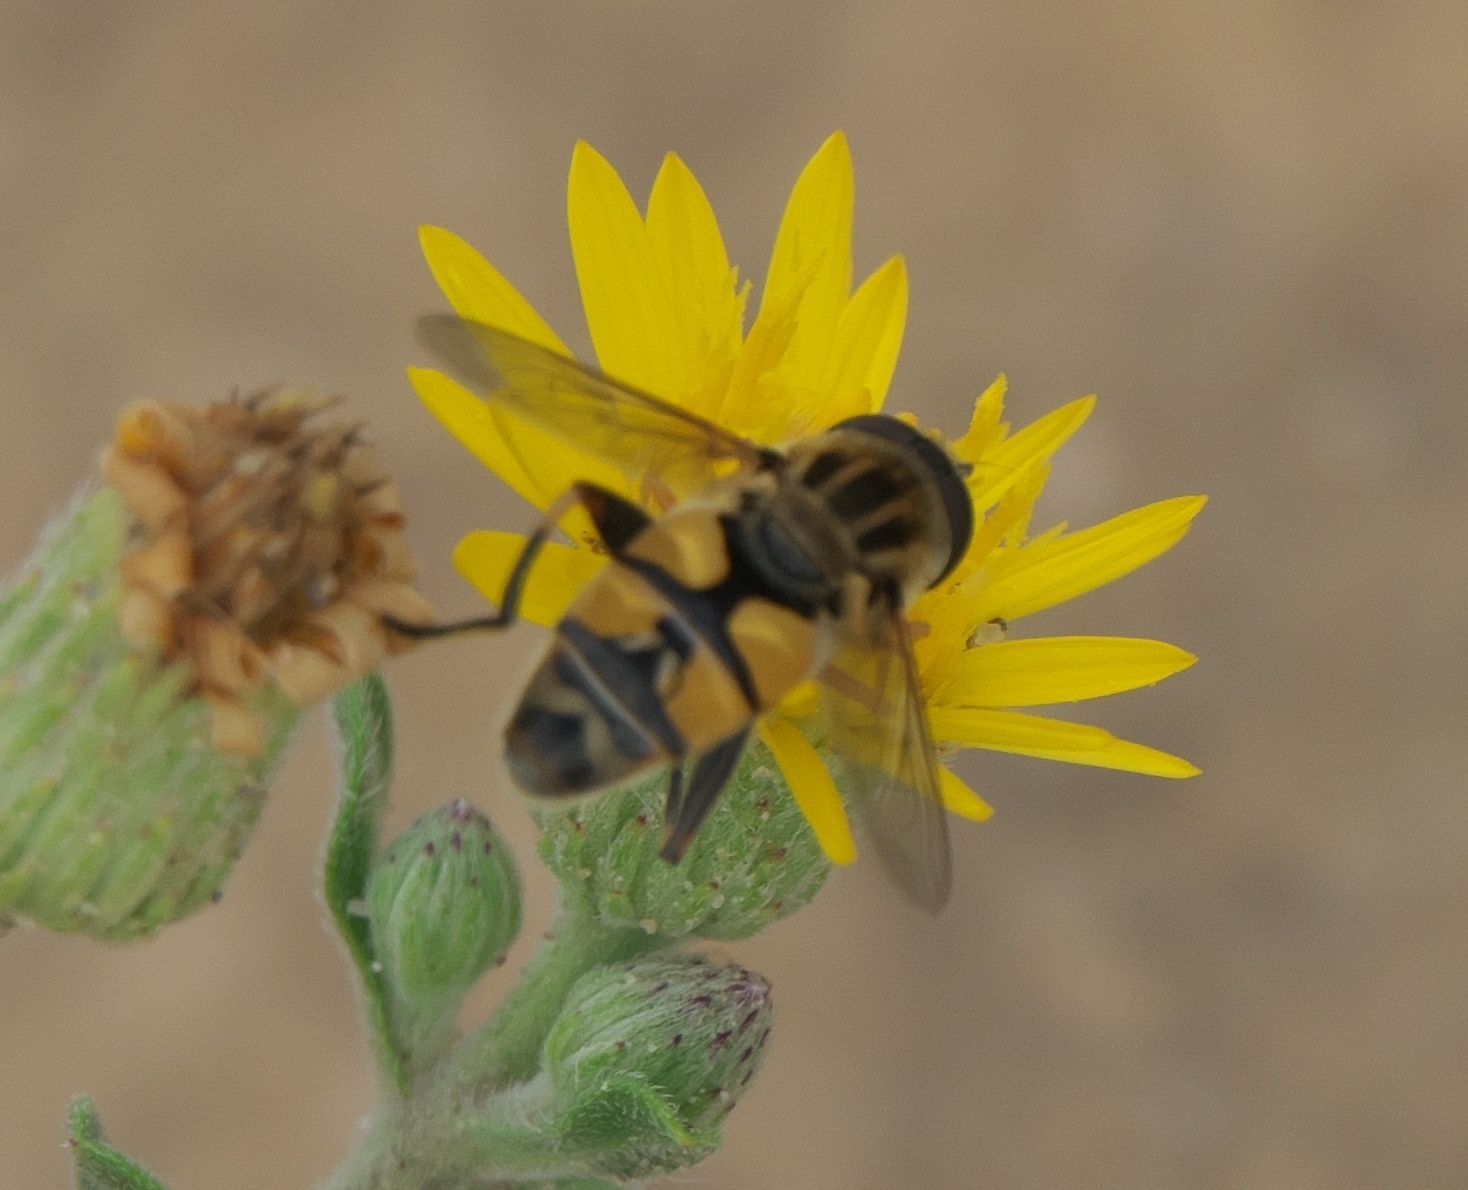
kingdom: Animalia
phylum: Arthropoda
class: Insecta
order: Diptera
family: Syrphidae
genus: Helophilus
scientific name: Helophilus latifrons
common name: Broad-headed marsh fly
